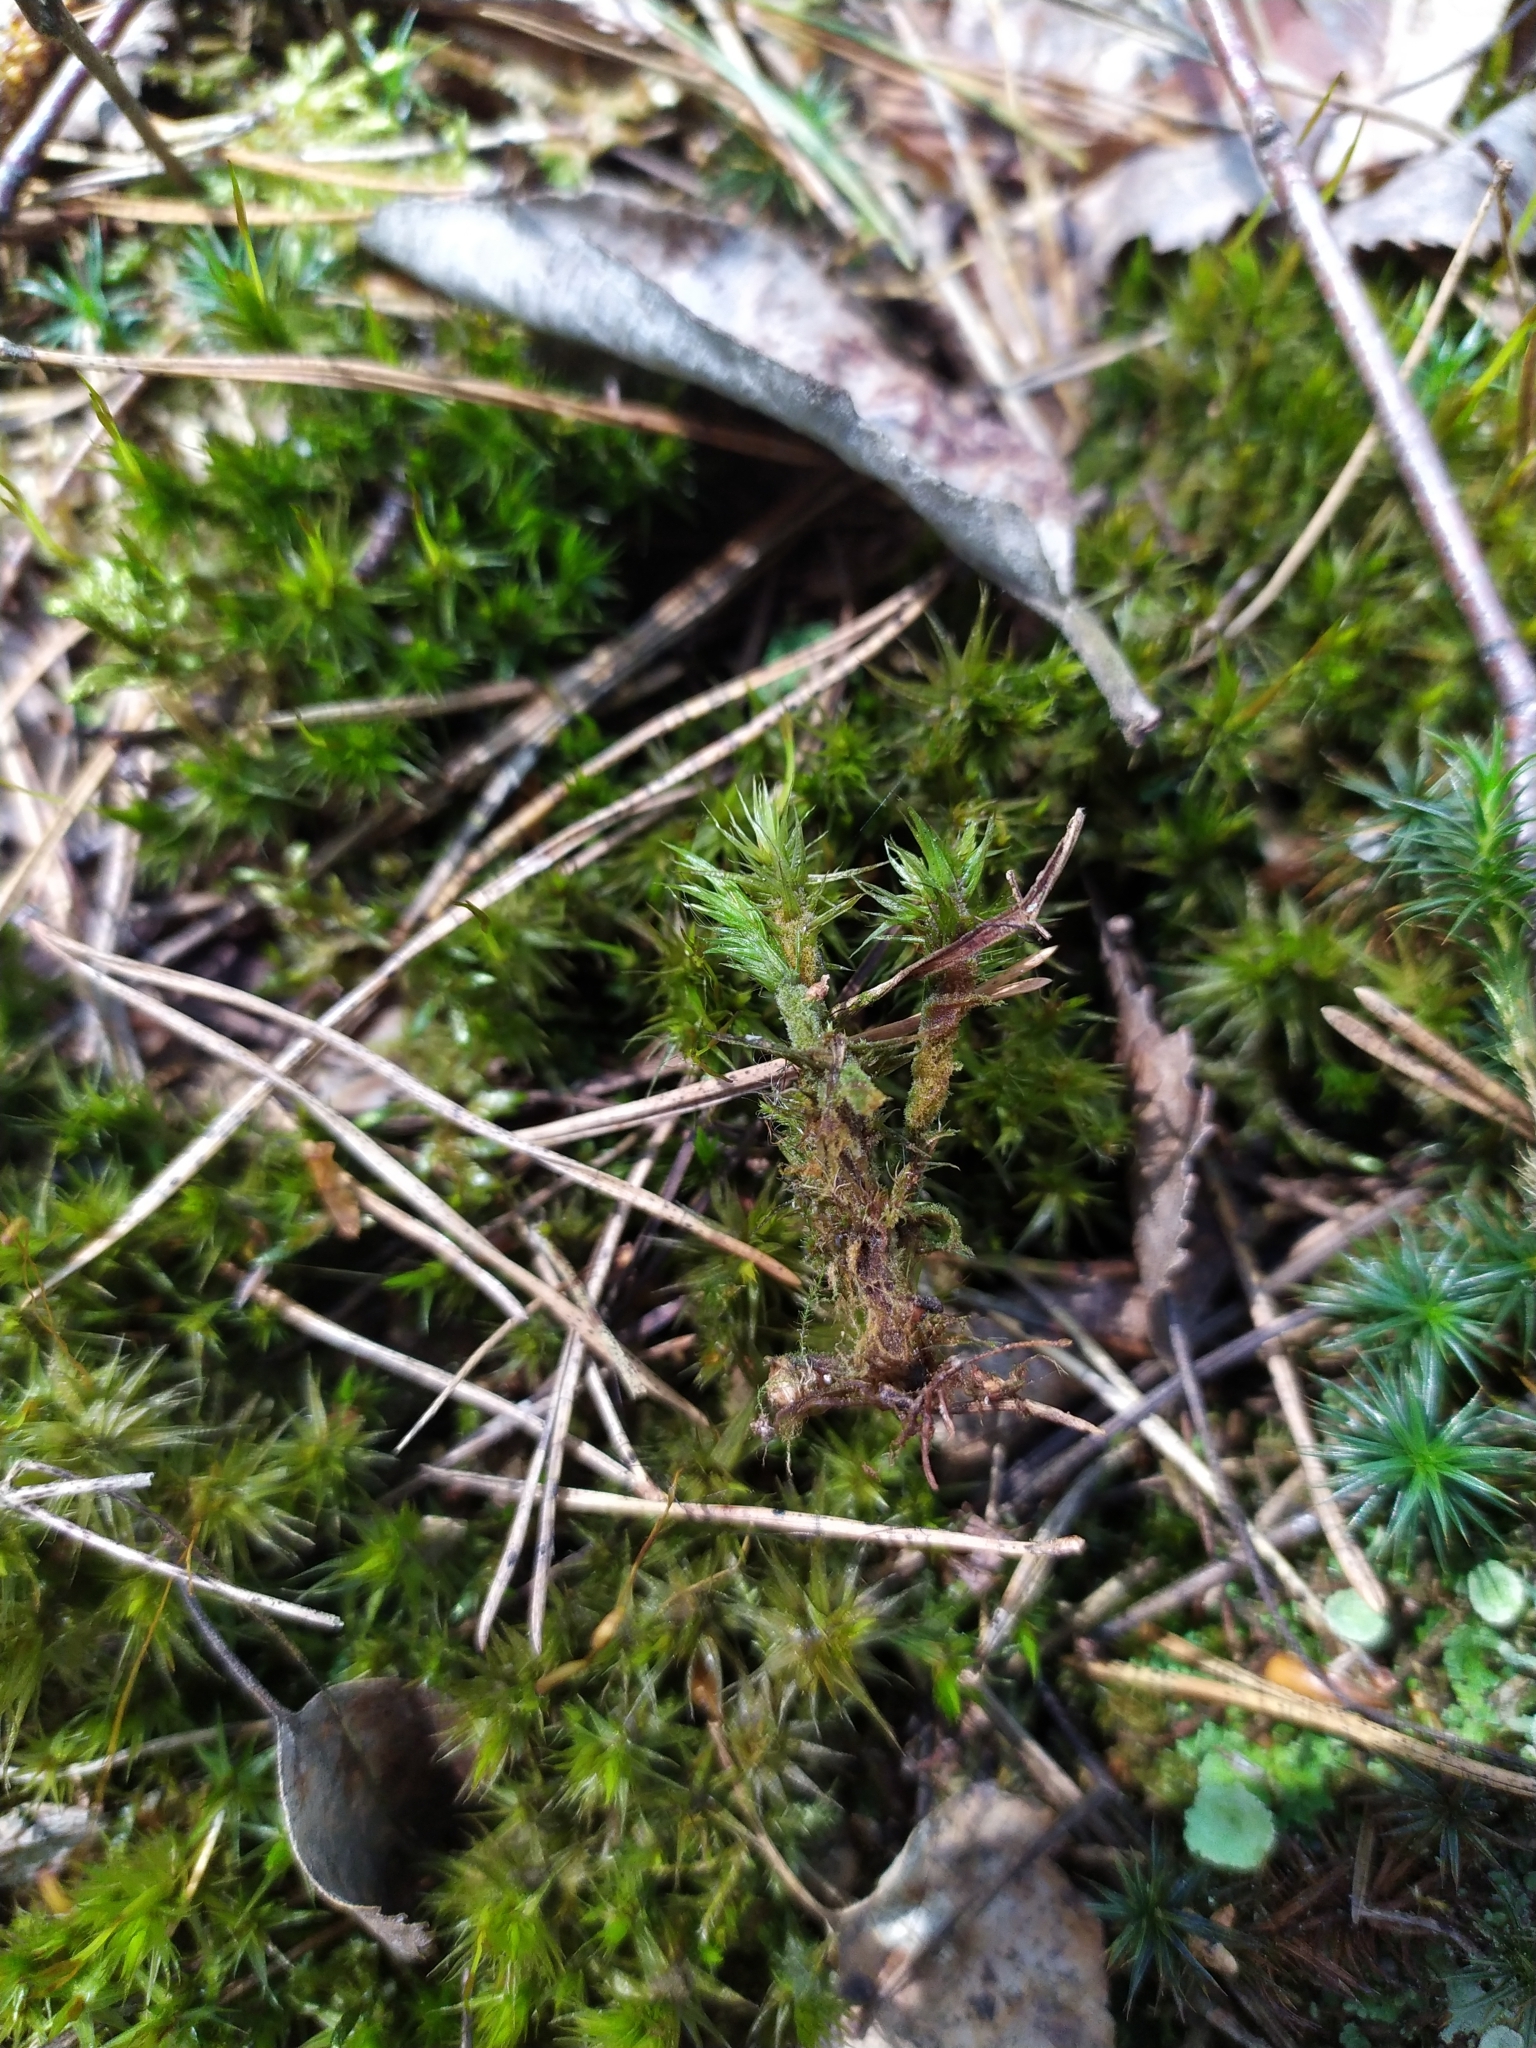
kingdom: Plantae
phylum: Bryophyta
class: Polytrichopsida
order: Polytrichales
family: Polytrichaceae
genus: Polytrichum
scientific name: Polytrichum commune
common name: Common haircap
